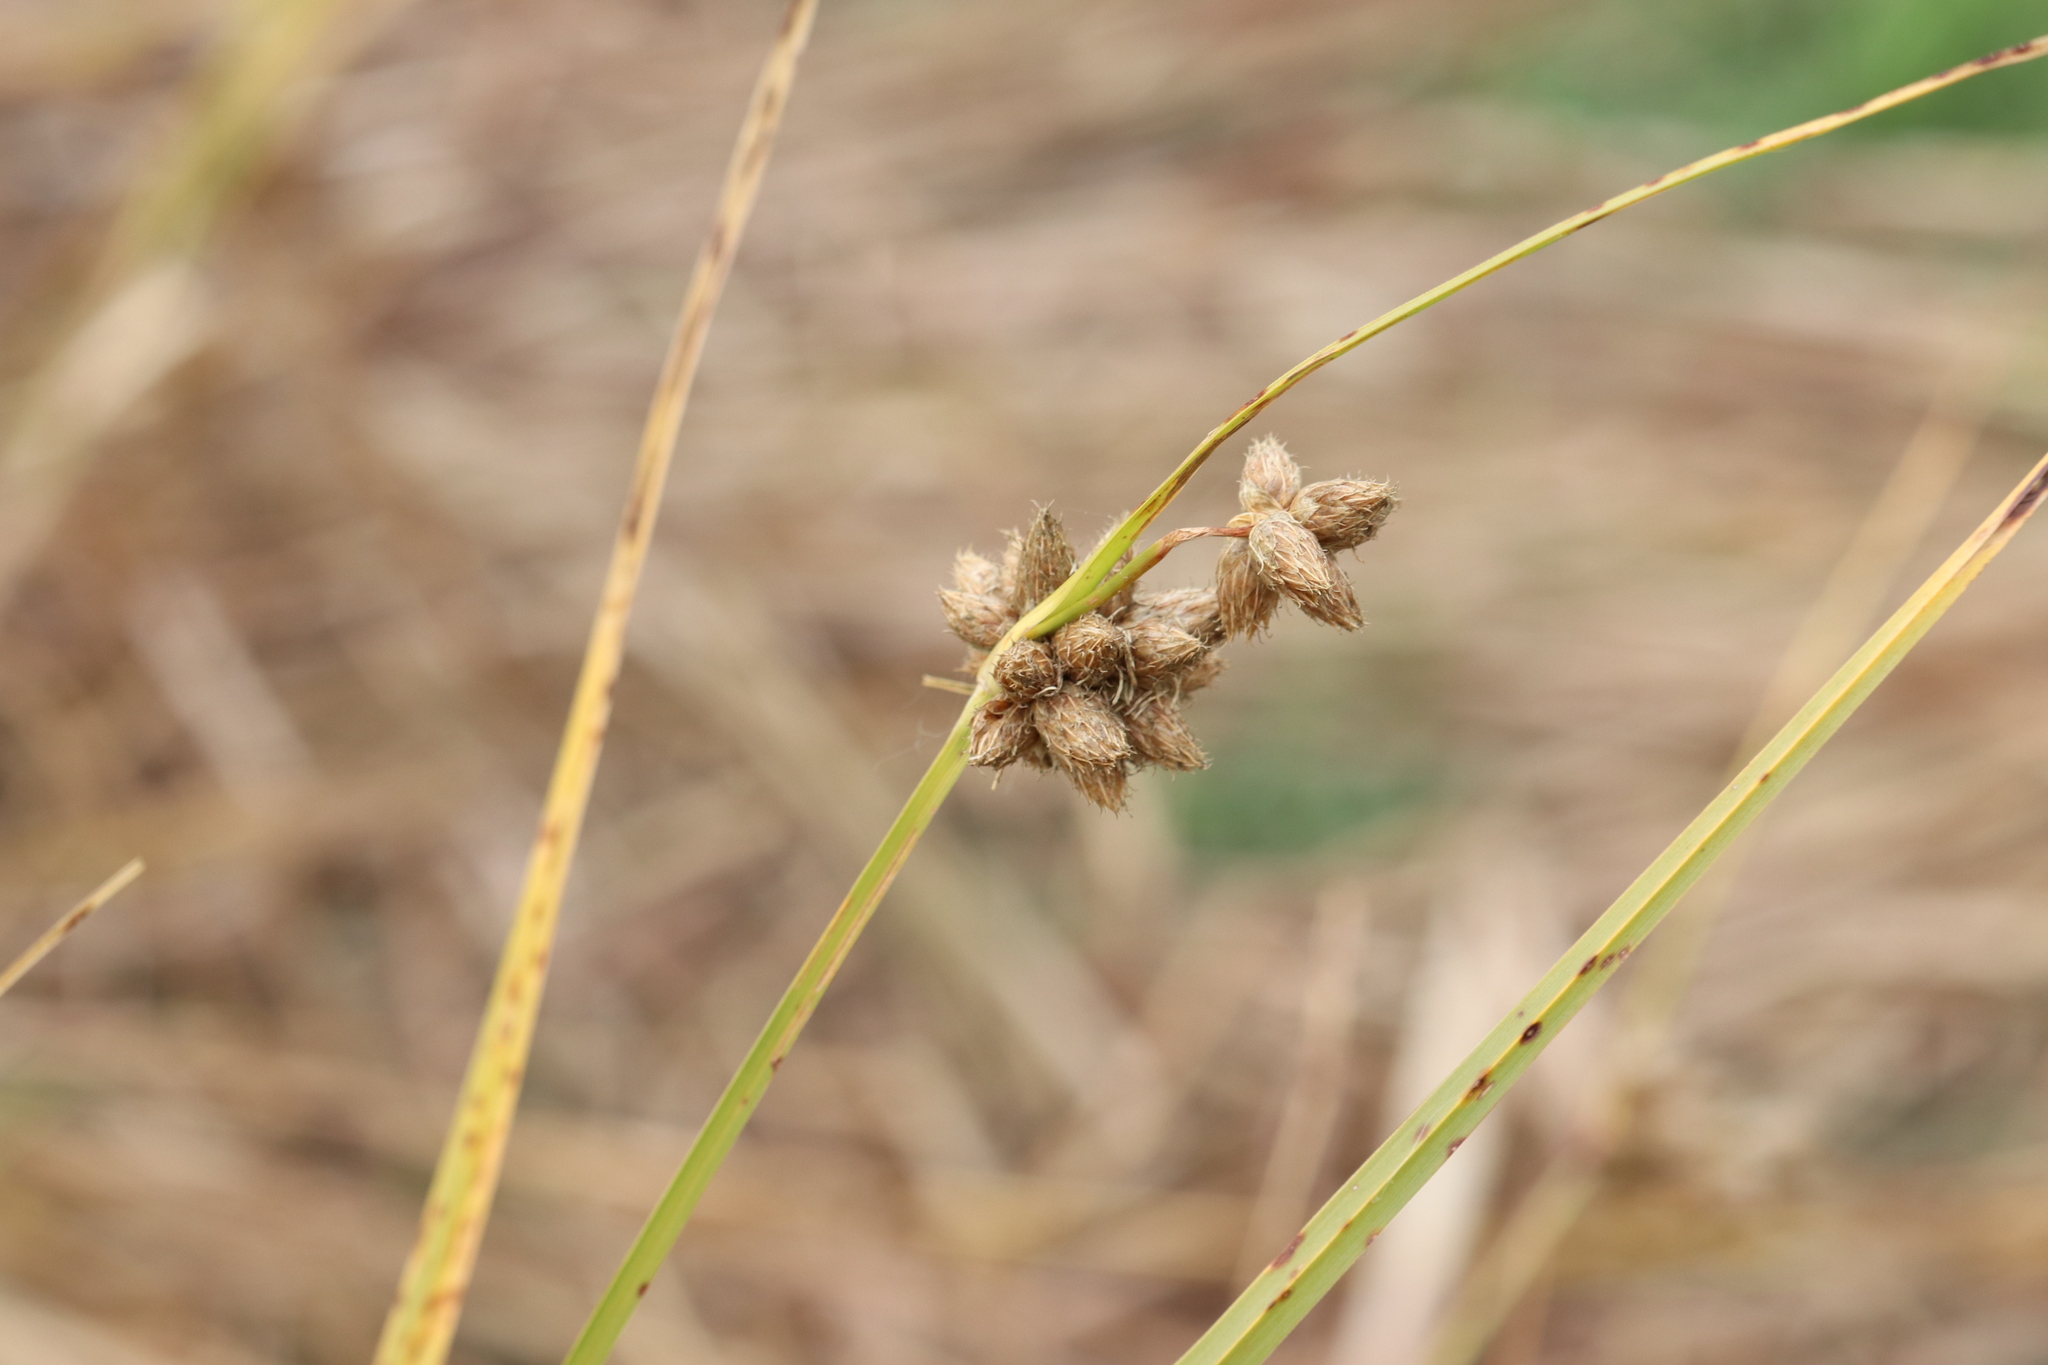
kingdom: Plantae
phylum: Tracheophyta
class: Liliopsida
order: Poales
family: Cyperaceae
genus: Bolboschoenus
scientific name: Bolboschoenus maritimus
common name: Sea club-rush
